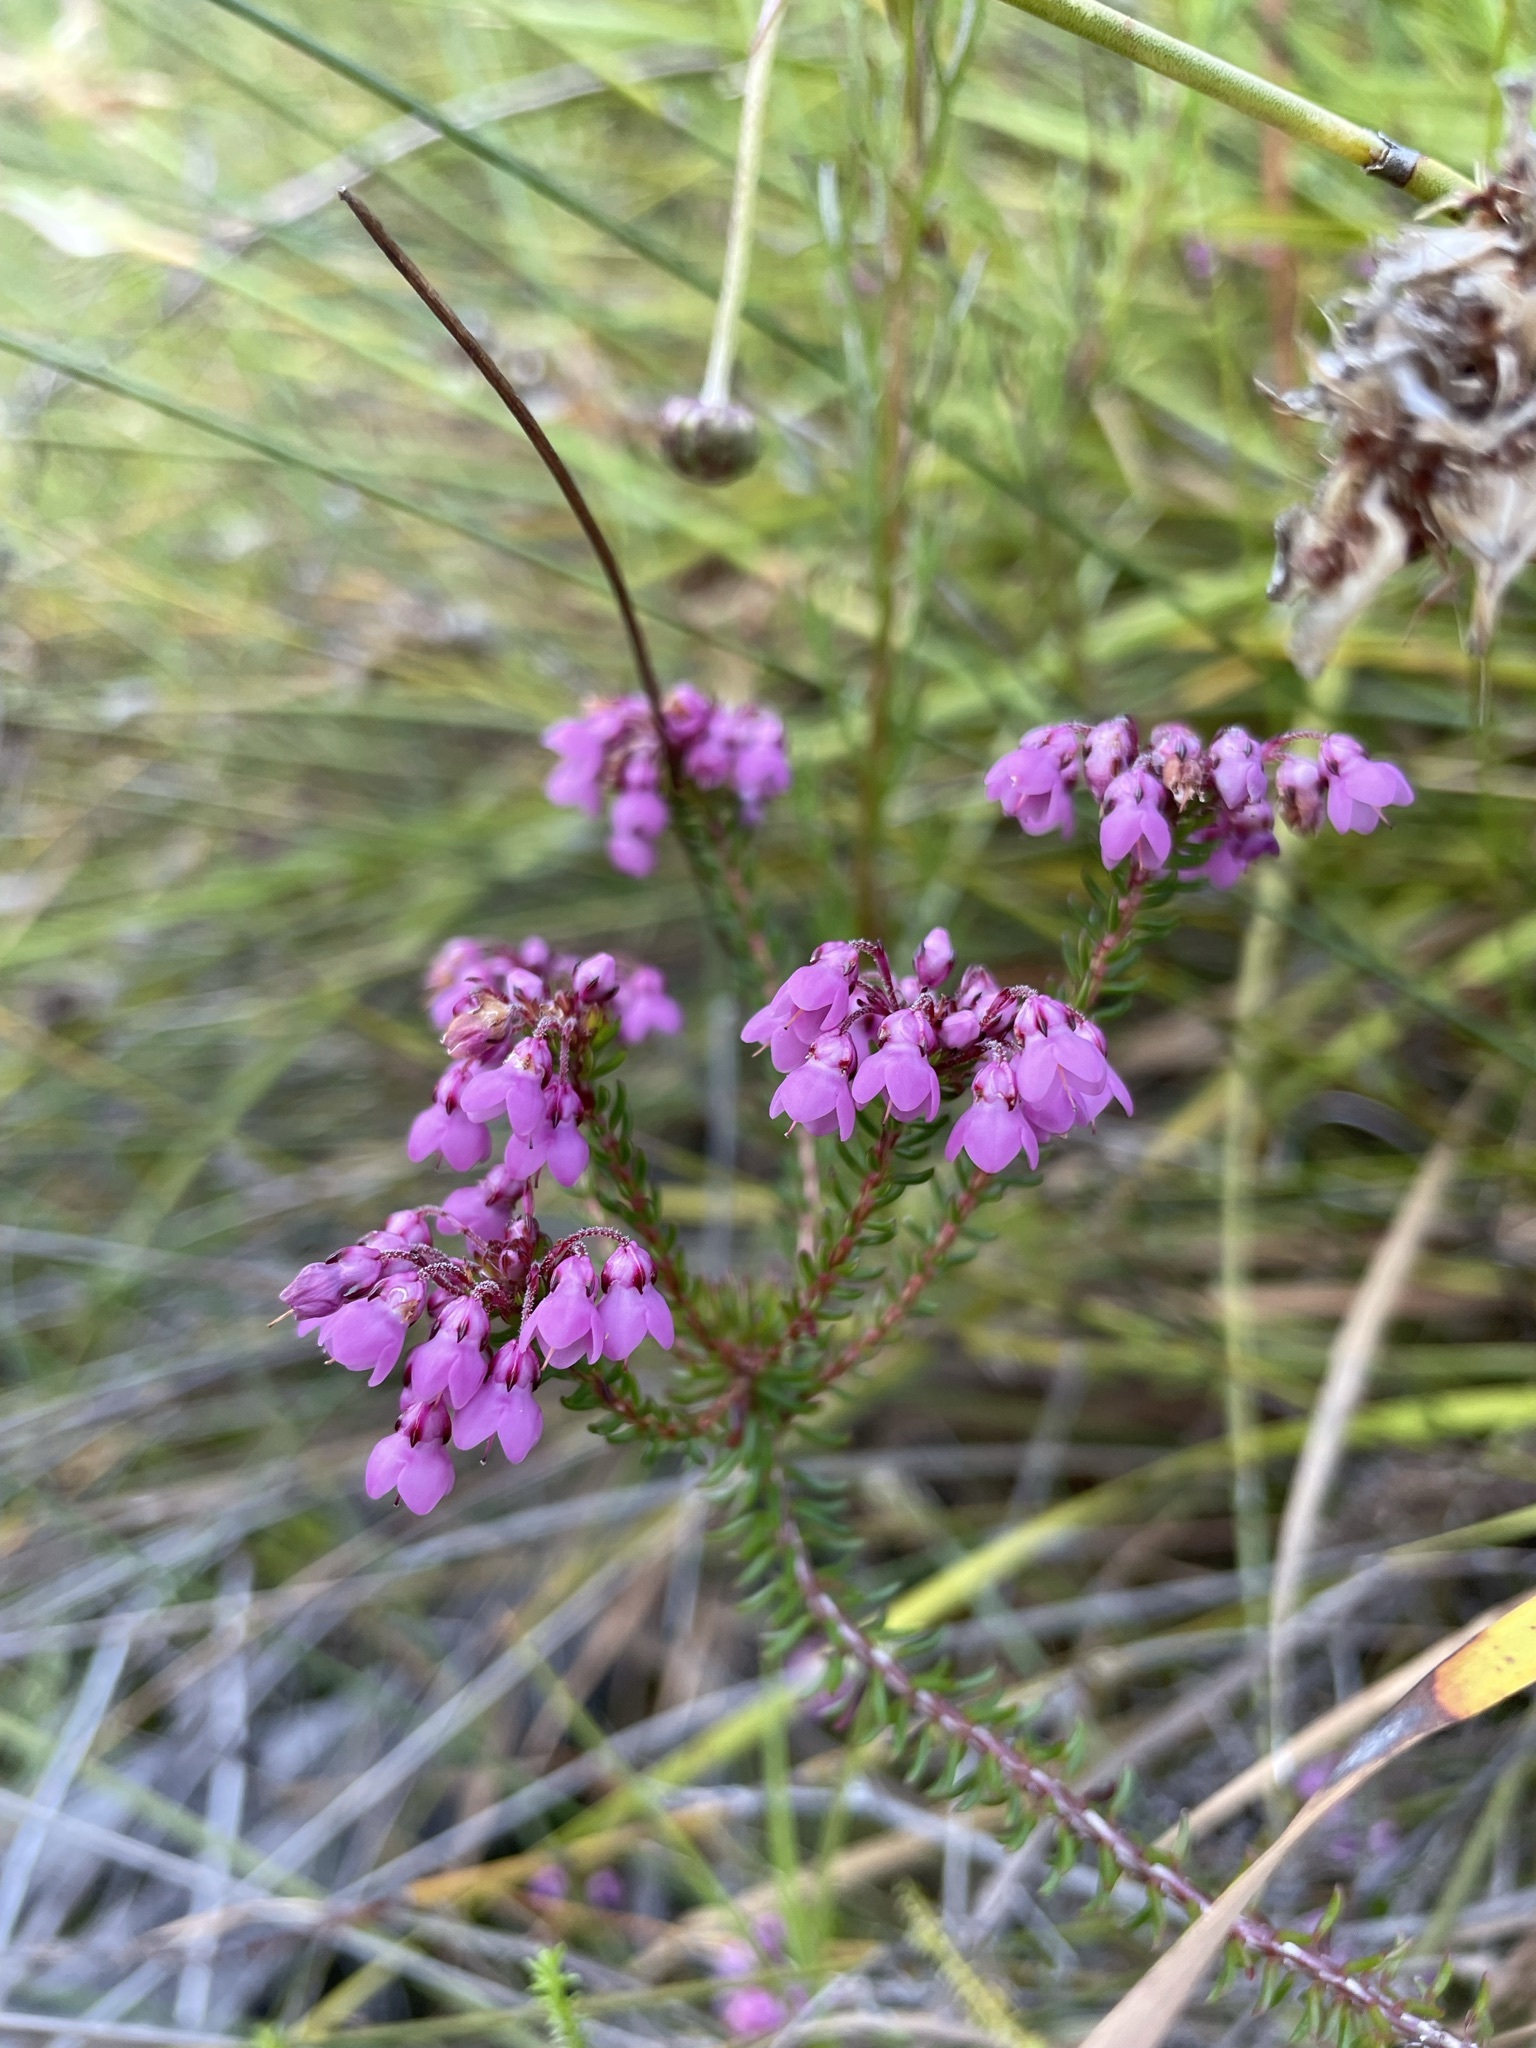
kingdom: Plantae
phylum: Tracheophyta
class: Magnoliopsida
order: Ericales
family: Ericaceae
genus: Erica
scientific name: Erica cubica
